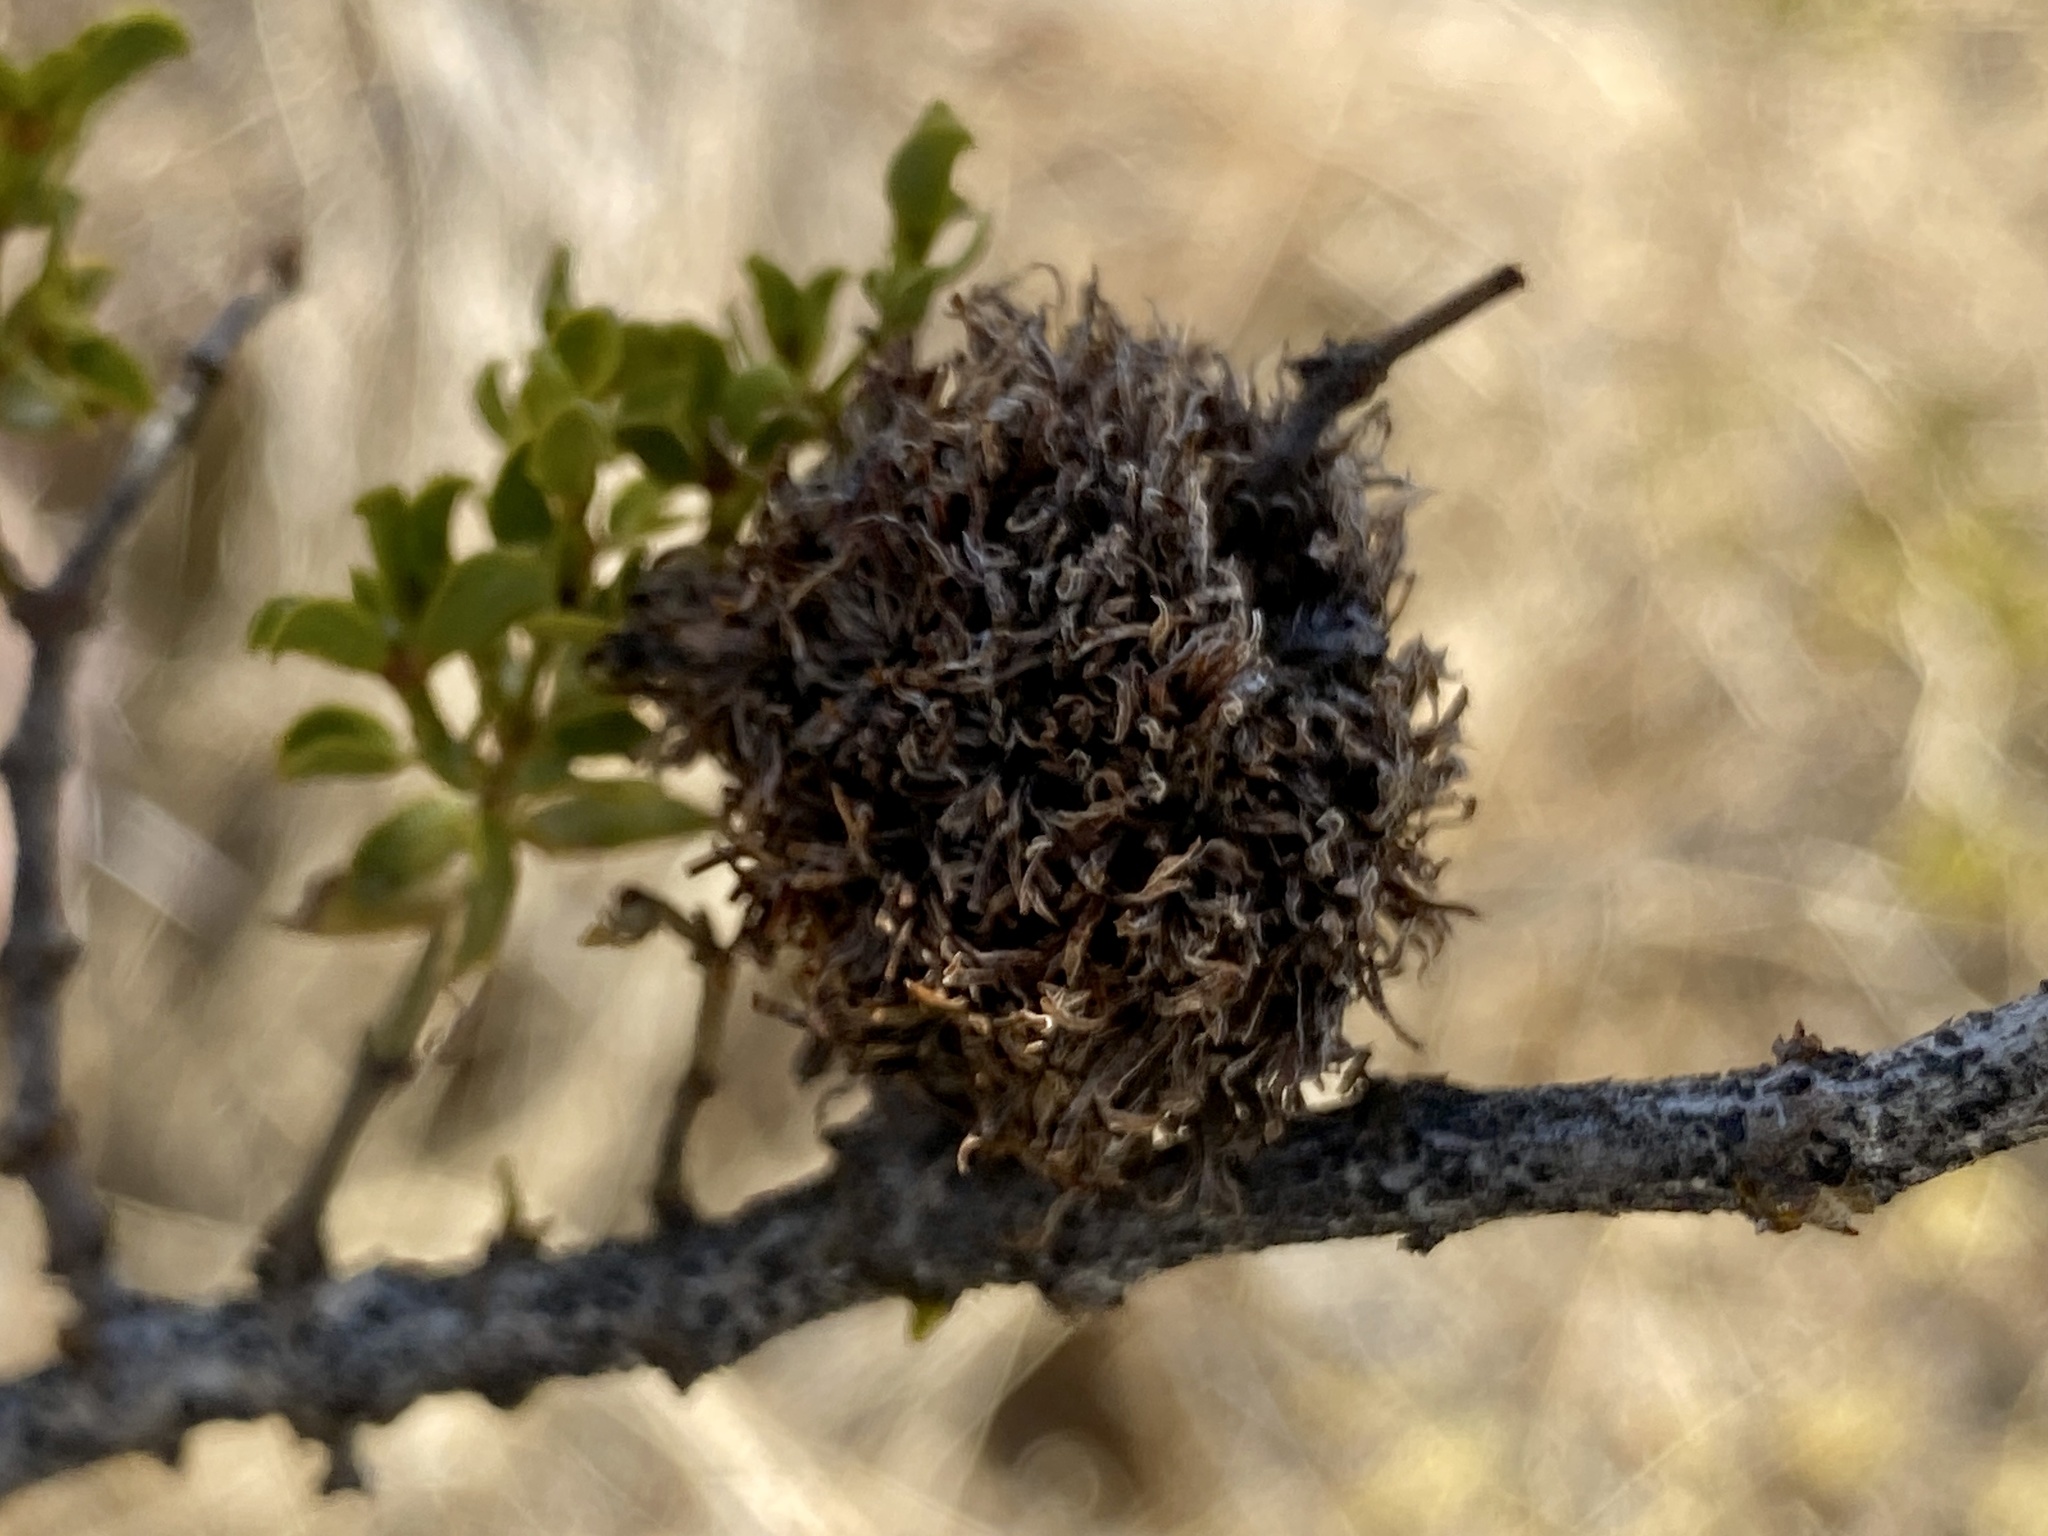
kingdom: Animalia
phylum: Arthropoda
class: Insecta
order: Diptera
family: Cecidomyiidae
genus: Asphondylia
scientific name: Asphondylia auripila
